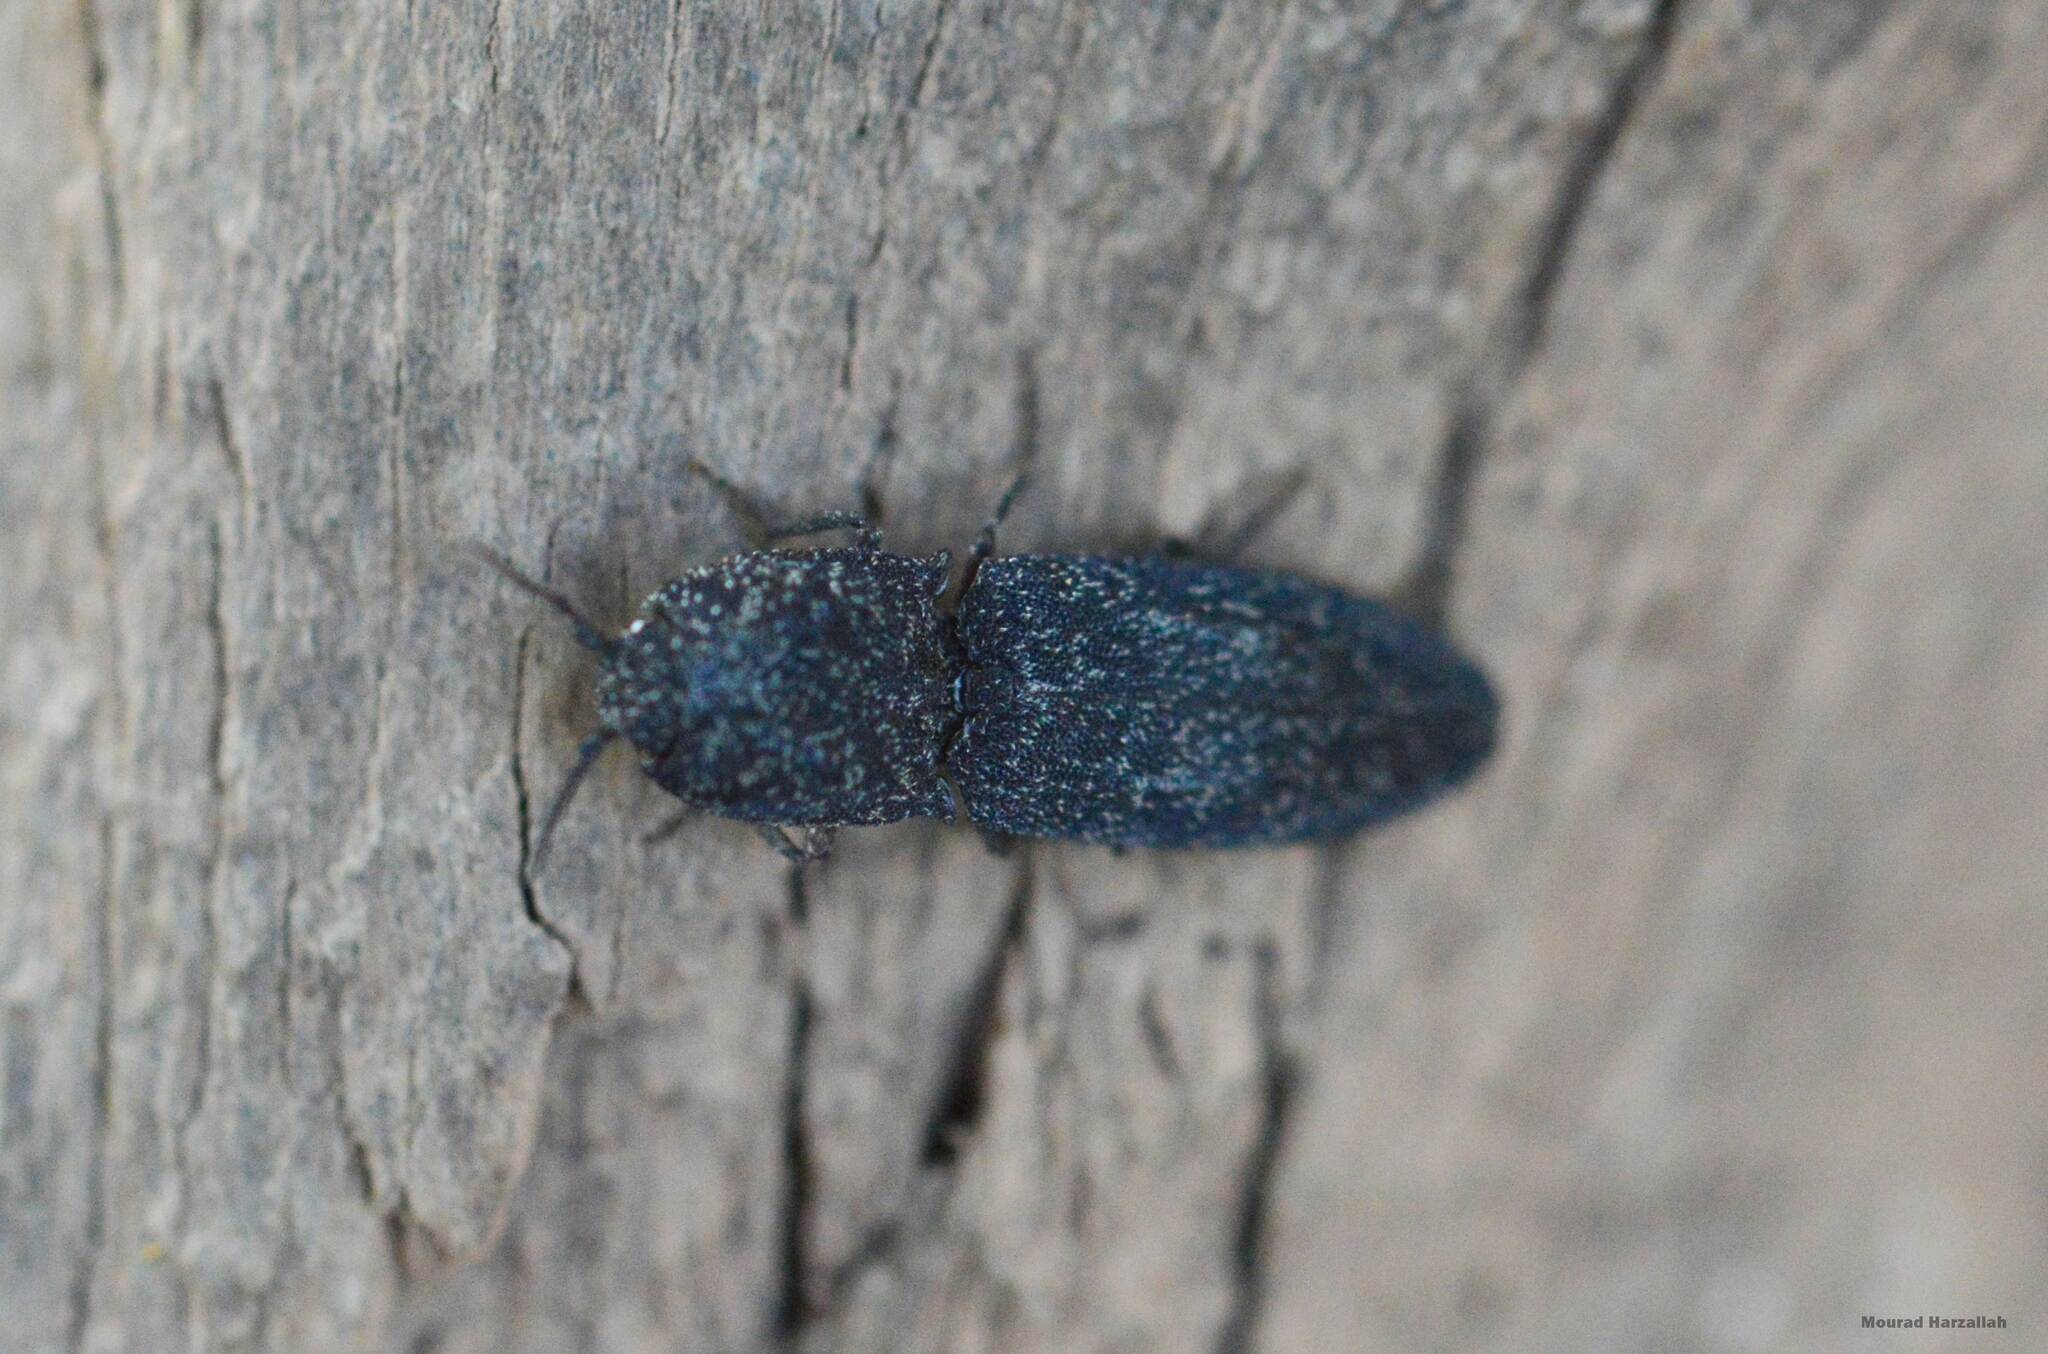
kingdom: Animalia
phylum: Arthropoda
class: Insecta
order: Coleoptera
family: Elateridae
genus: Lacon
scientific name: Lacon punctatus
